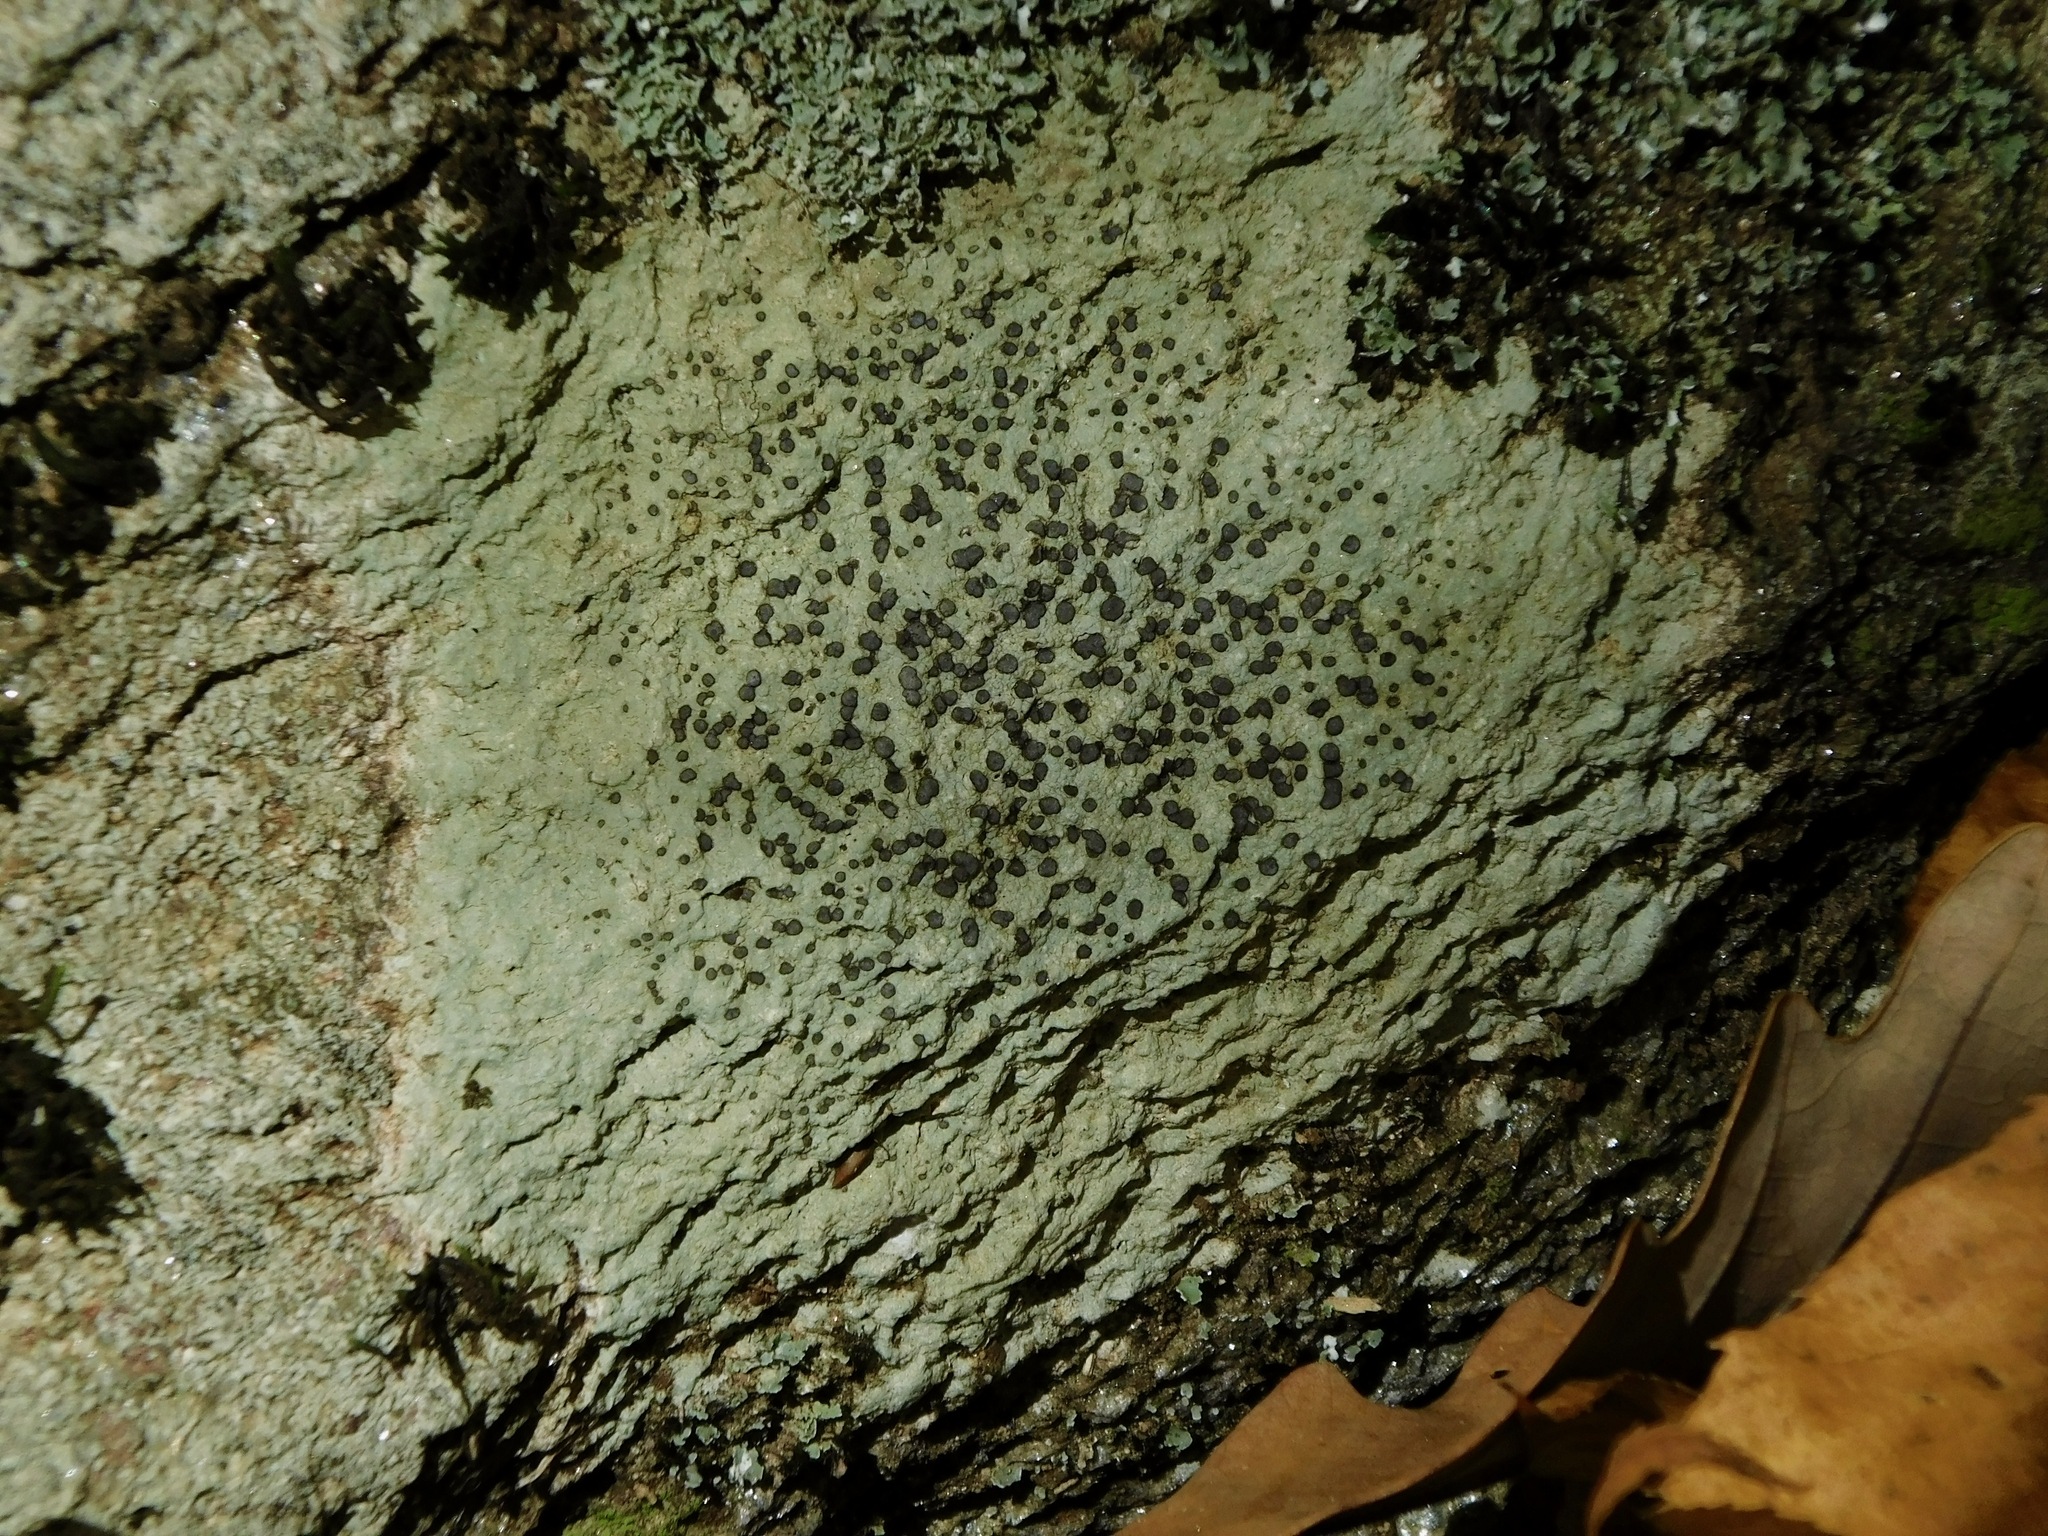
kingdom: Fungi
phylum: Ascomycota
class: Lecanoromycetes
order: Lecideales
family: Lecideaceae
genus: Porpidia
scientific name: Porpidia albocaerulescens
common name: Smokey-eyed boulder lichen
